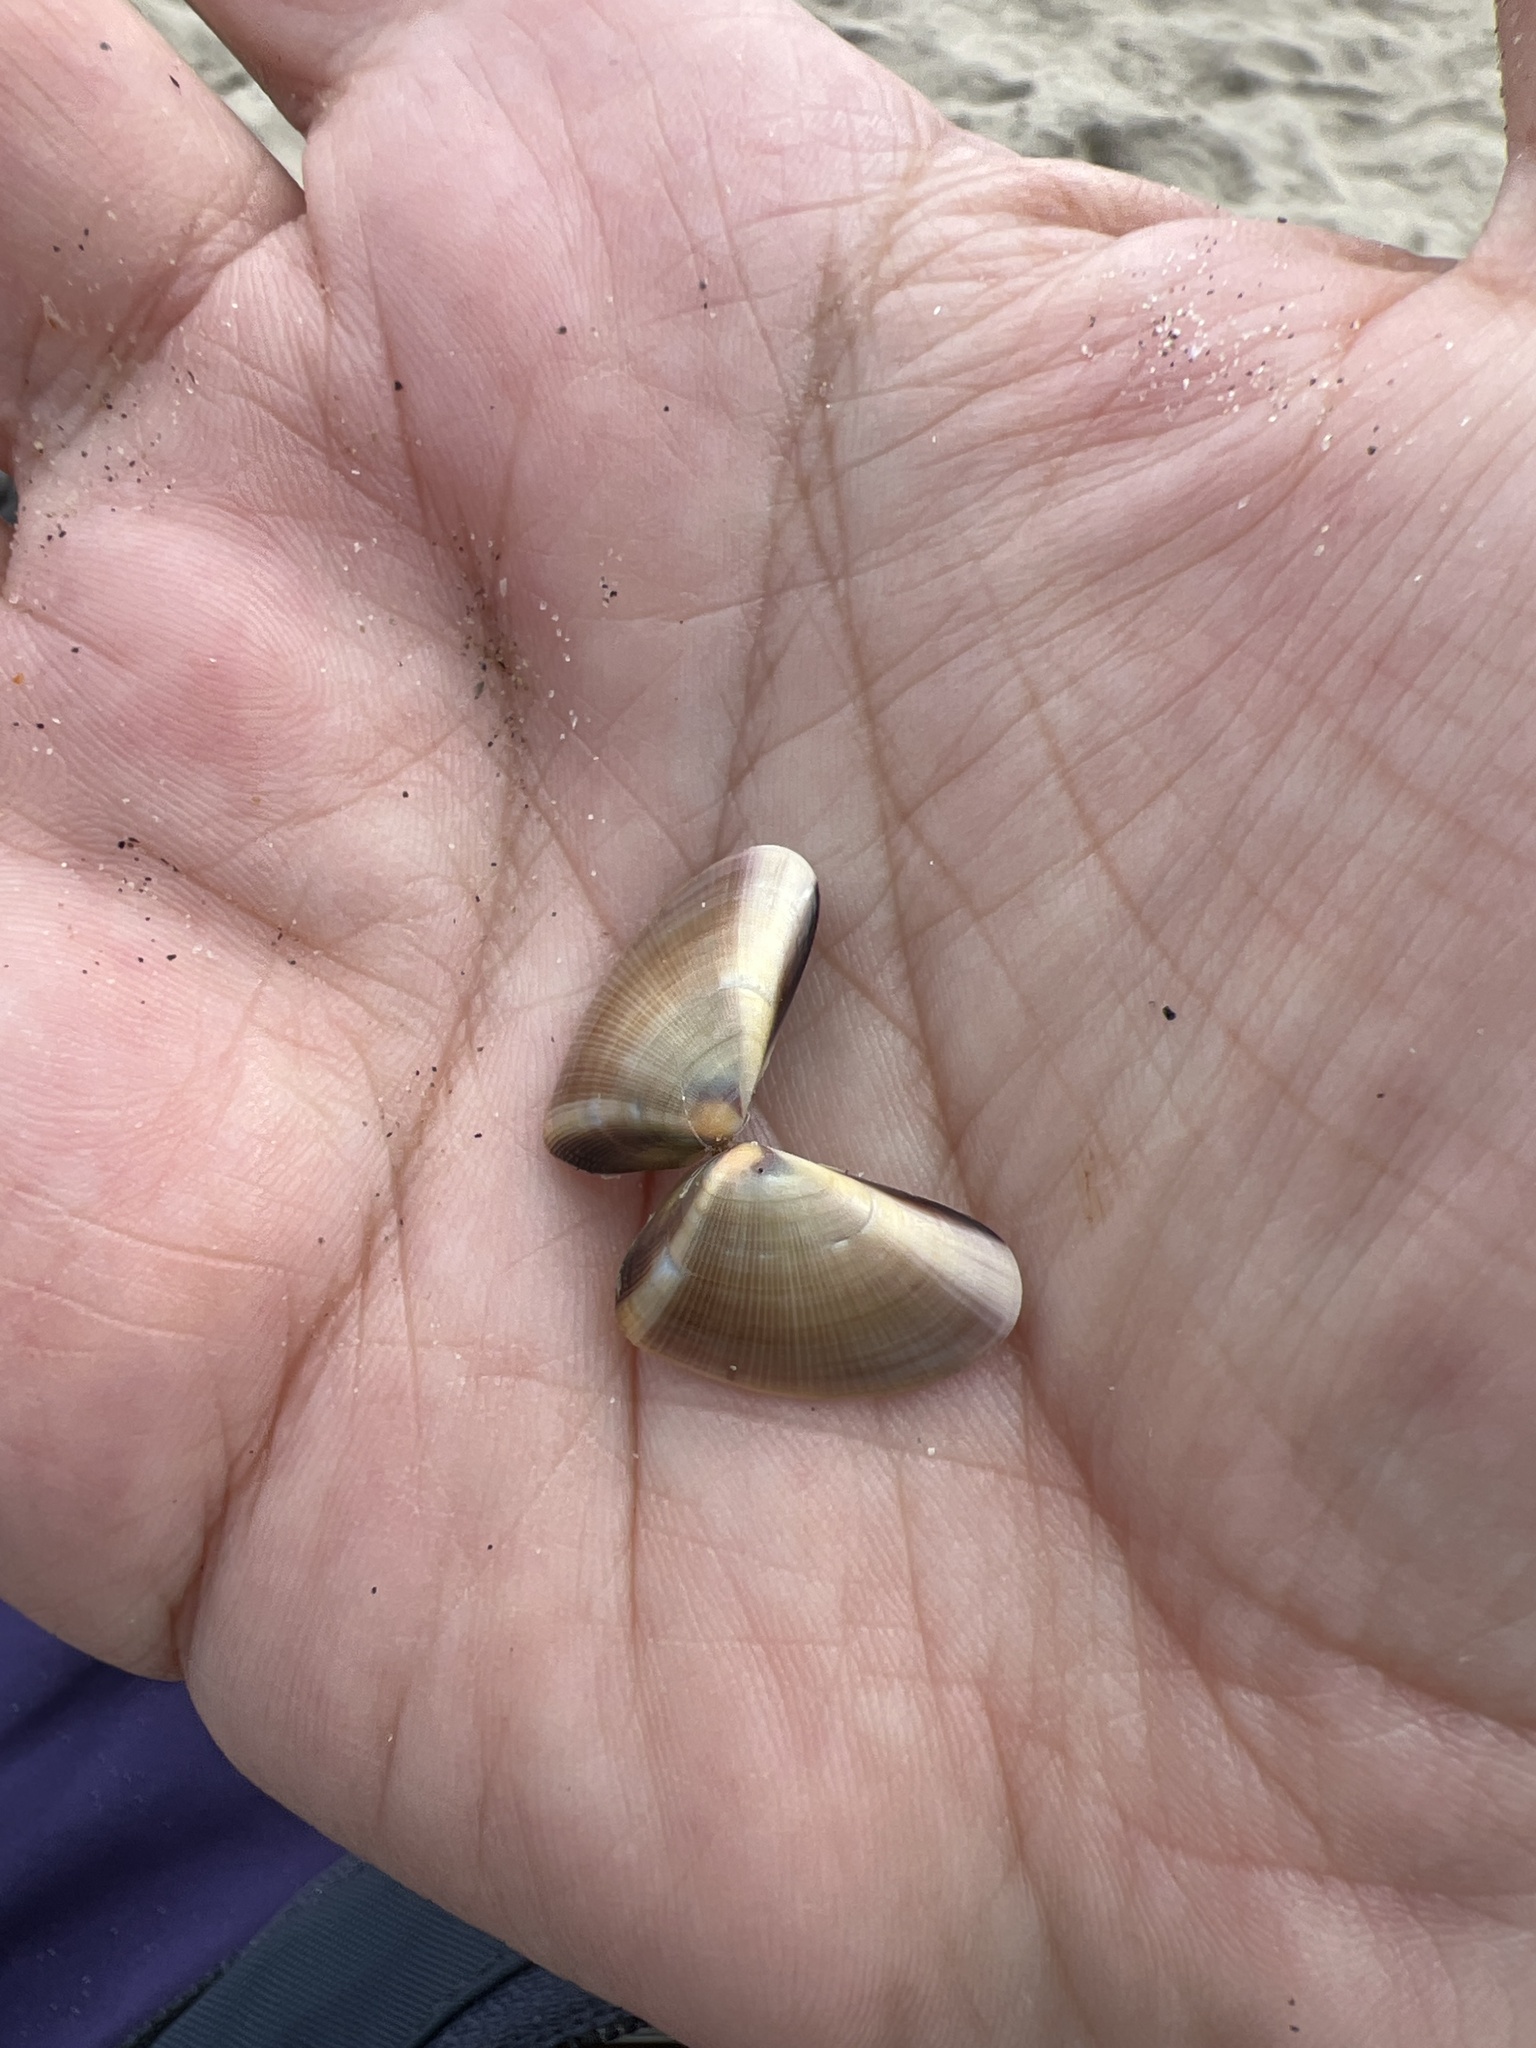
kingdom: Animalia
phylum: Mollusca
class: Bivalvia
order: Cardiida
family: Donacidae
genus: Donax
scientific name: Donax gouldii
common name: Gould beanclam
